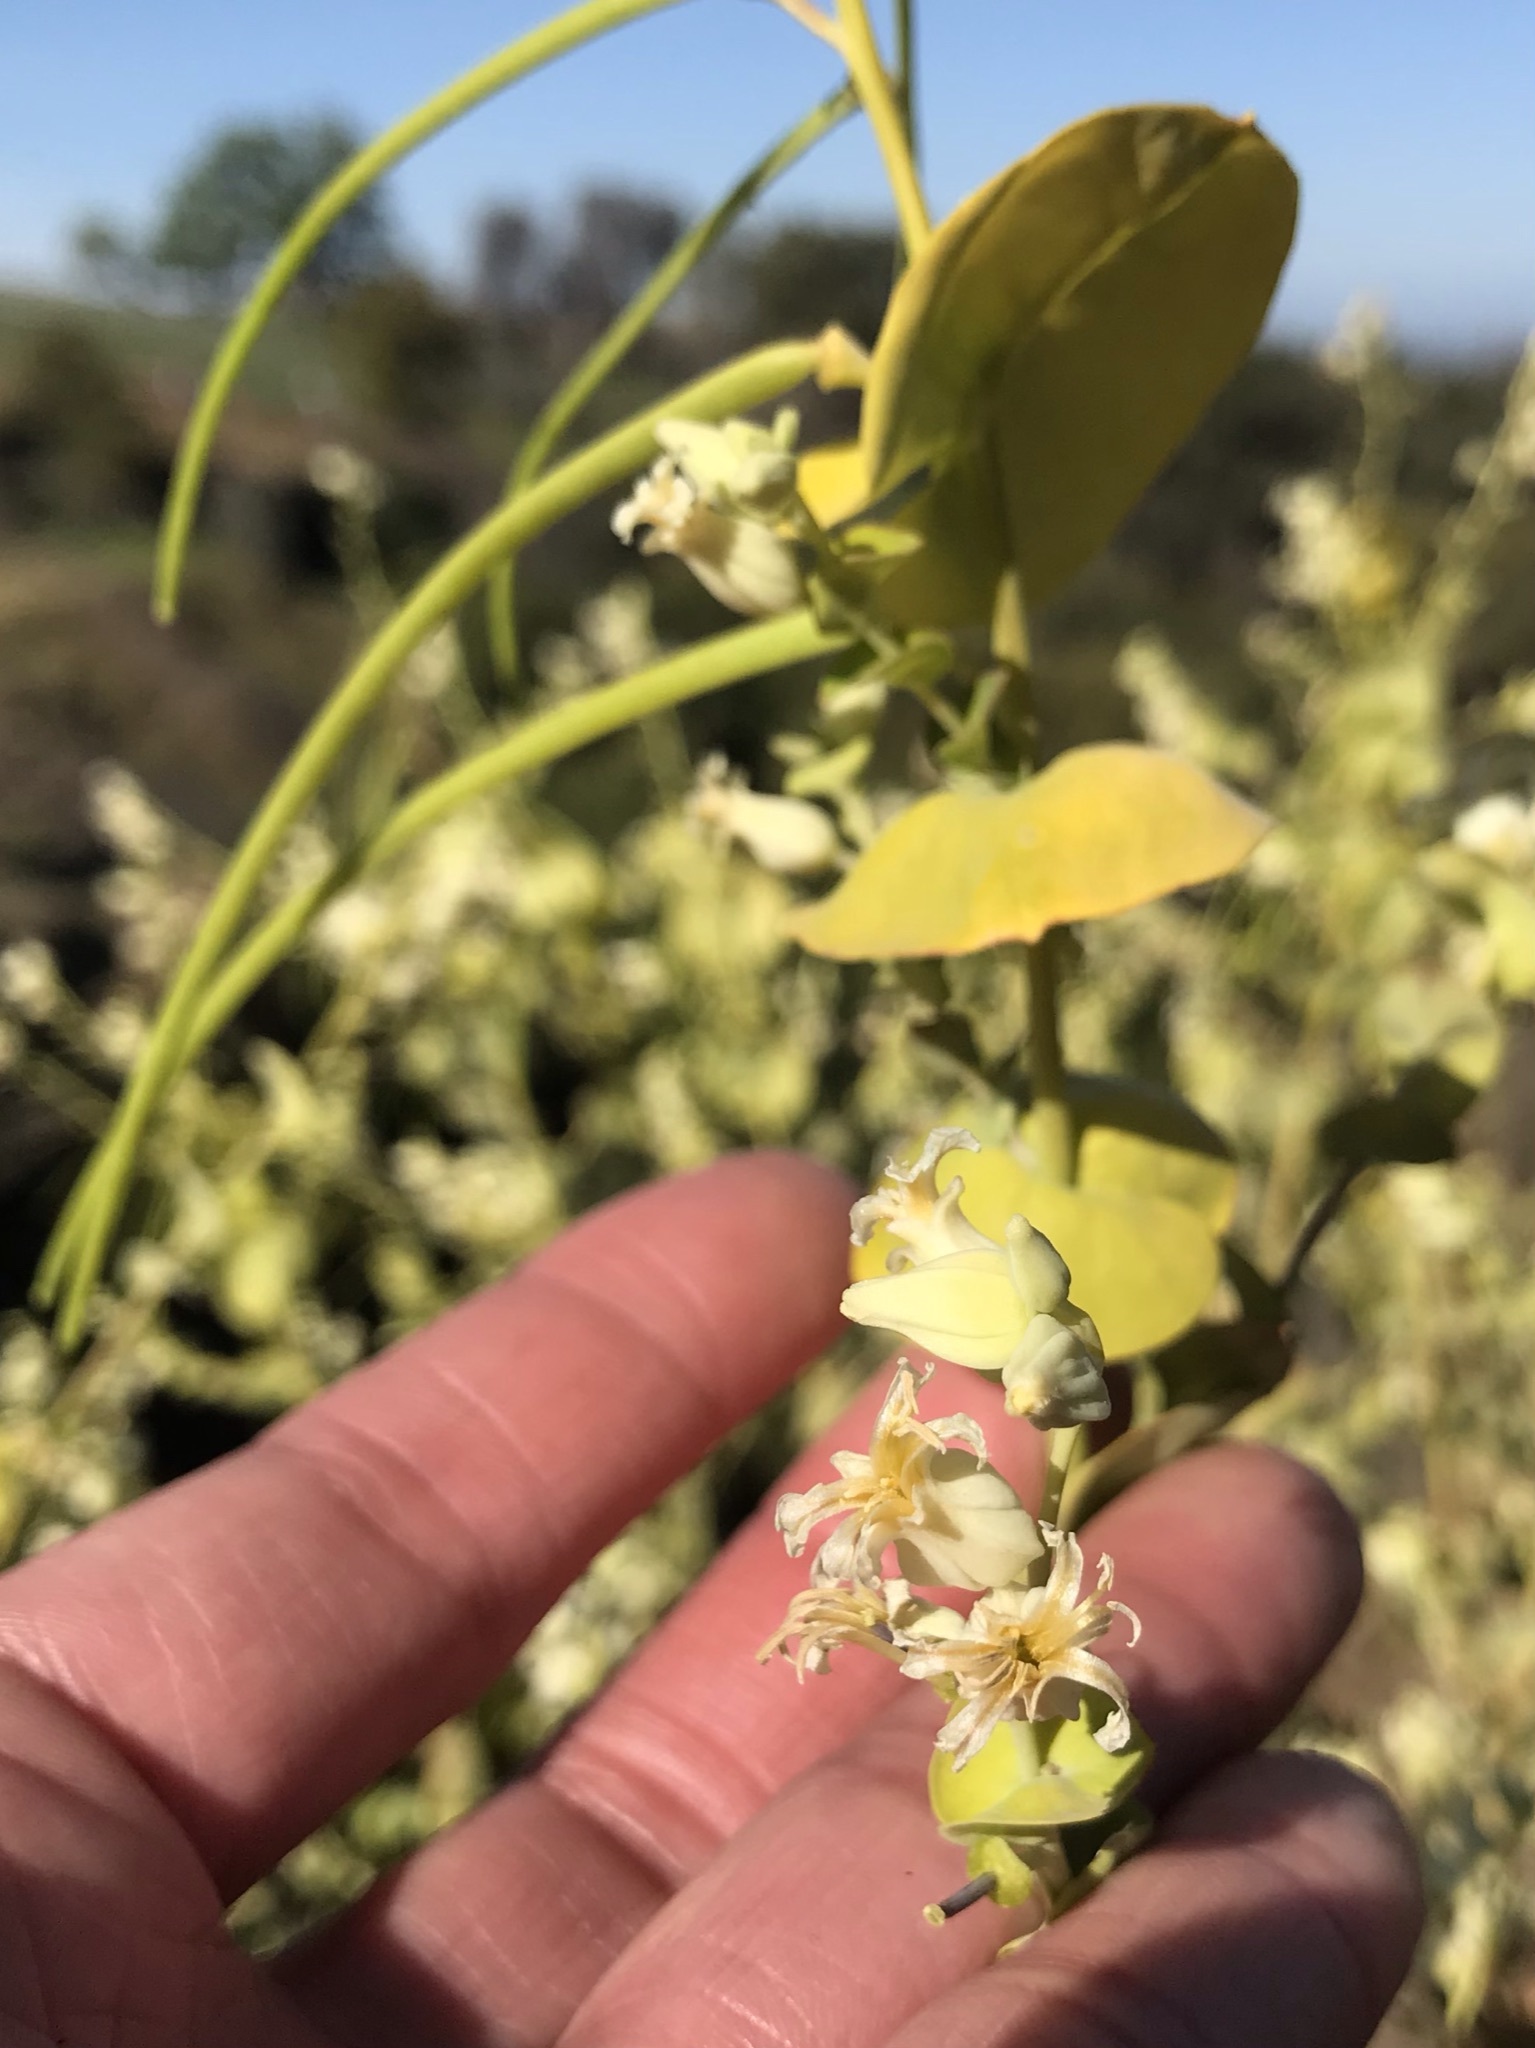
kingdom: Plantae
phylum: Tracheophyta
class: Magnoliopsida
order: Brassicales
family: Brassicaceae
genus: Streptanthus
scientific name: Streptanthus tortuosus
